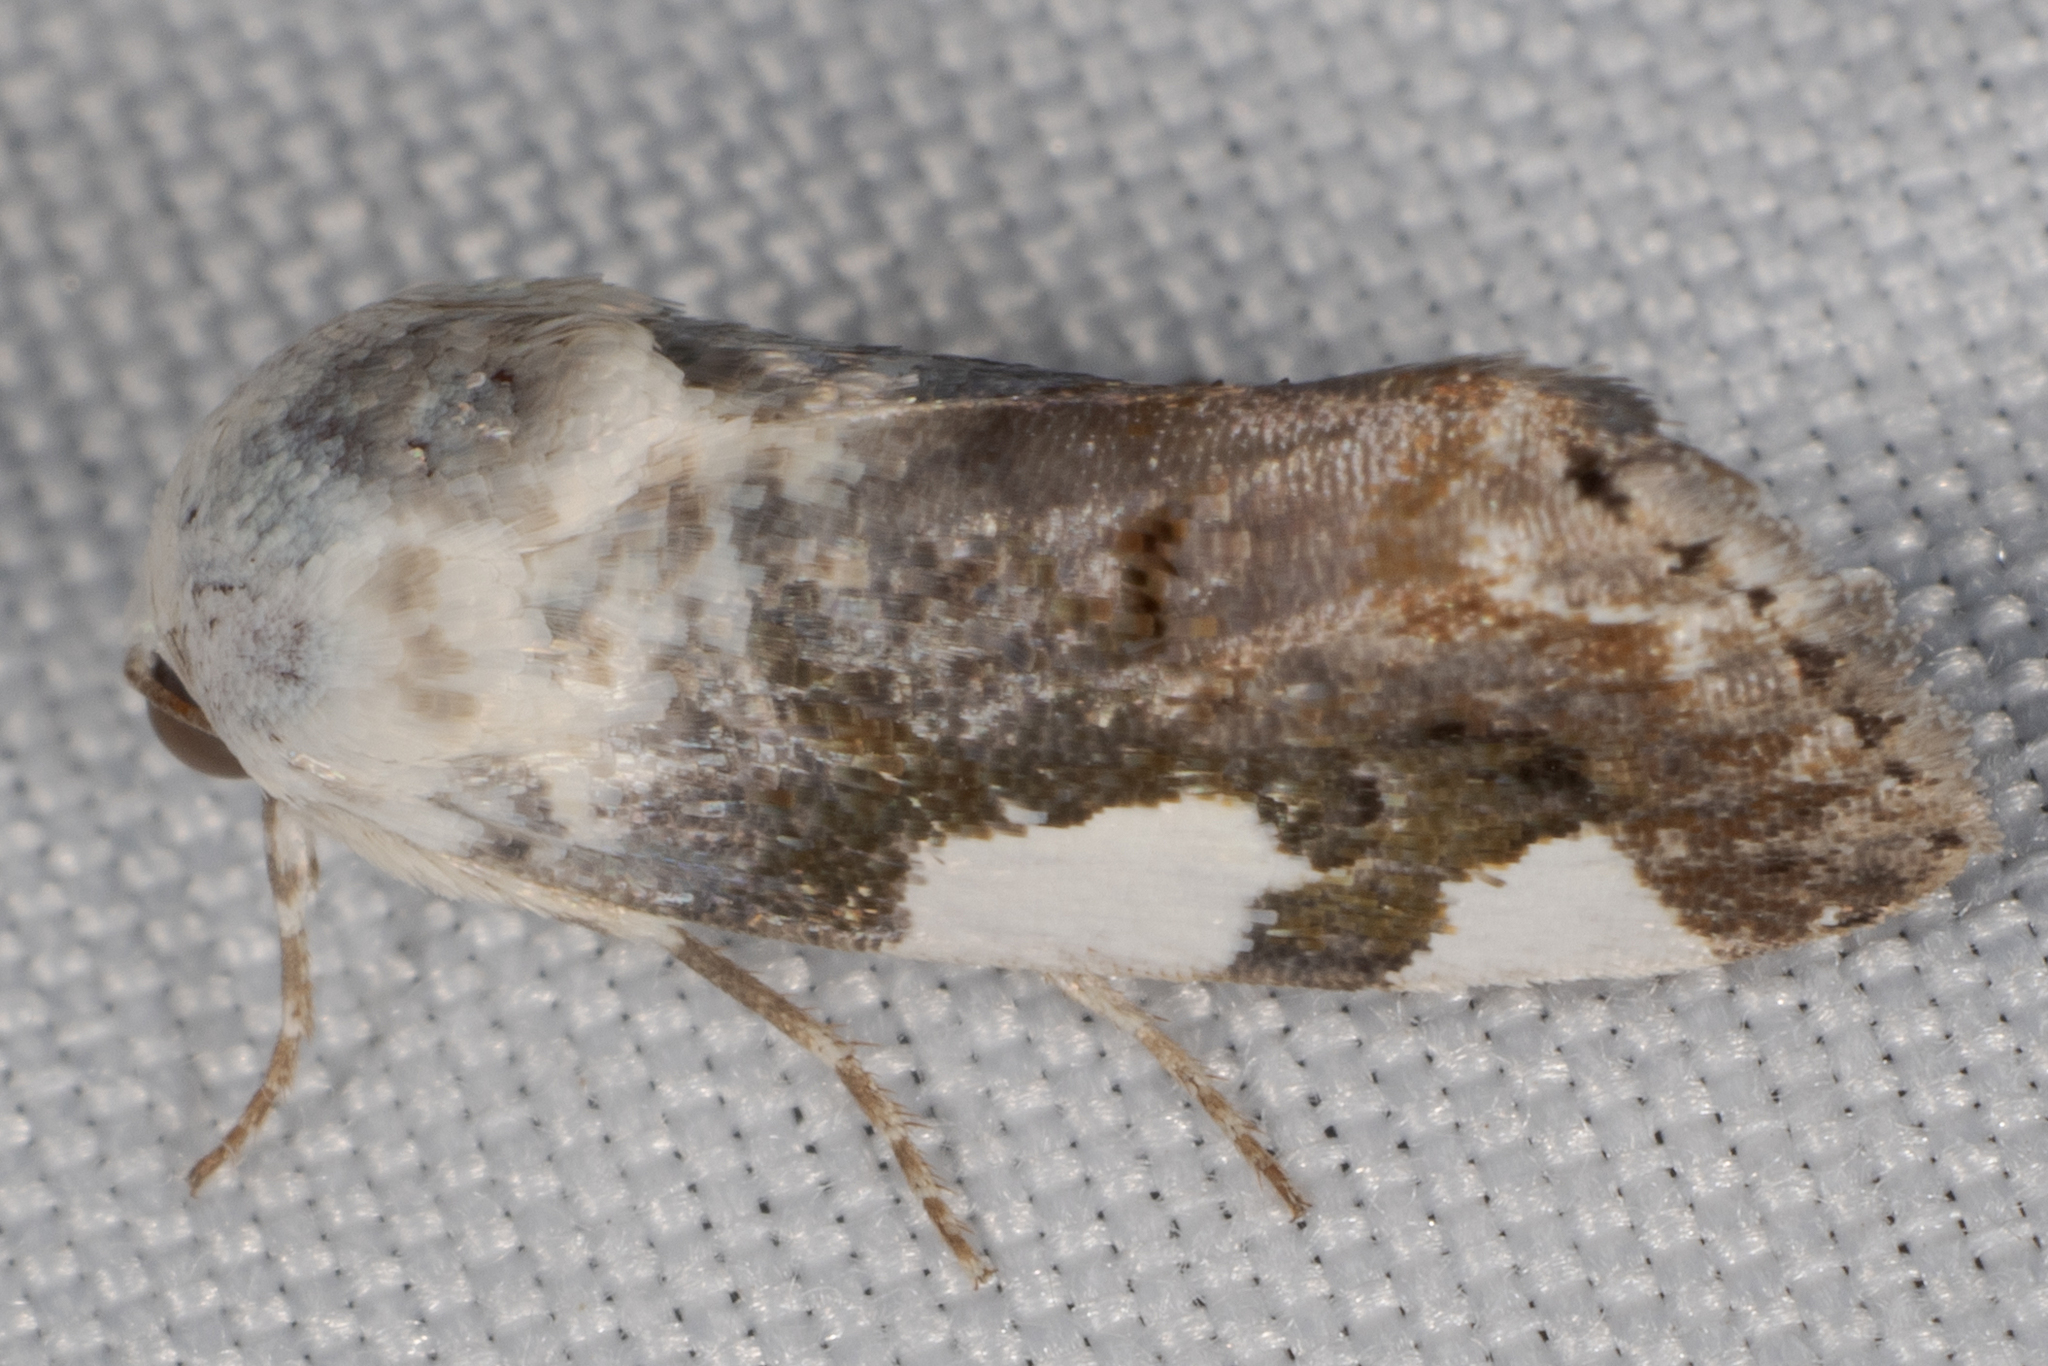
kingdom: Animalia
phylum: Arthropoda
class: Insecta
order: Lepidoptera
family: Noctuidae
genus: Acontia
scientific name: Acontia quadriplaga
